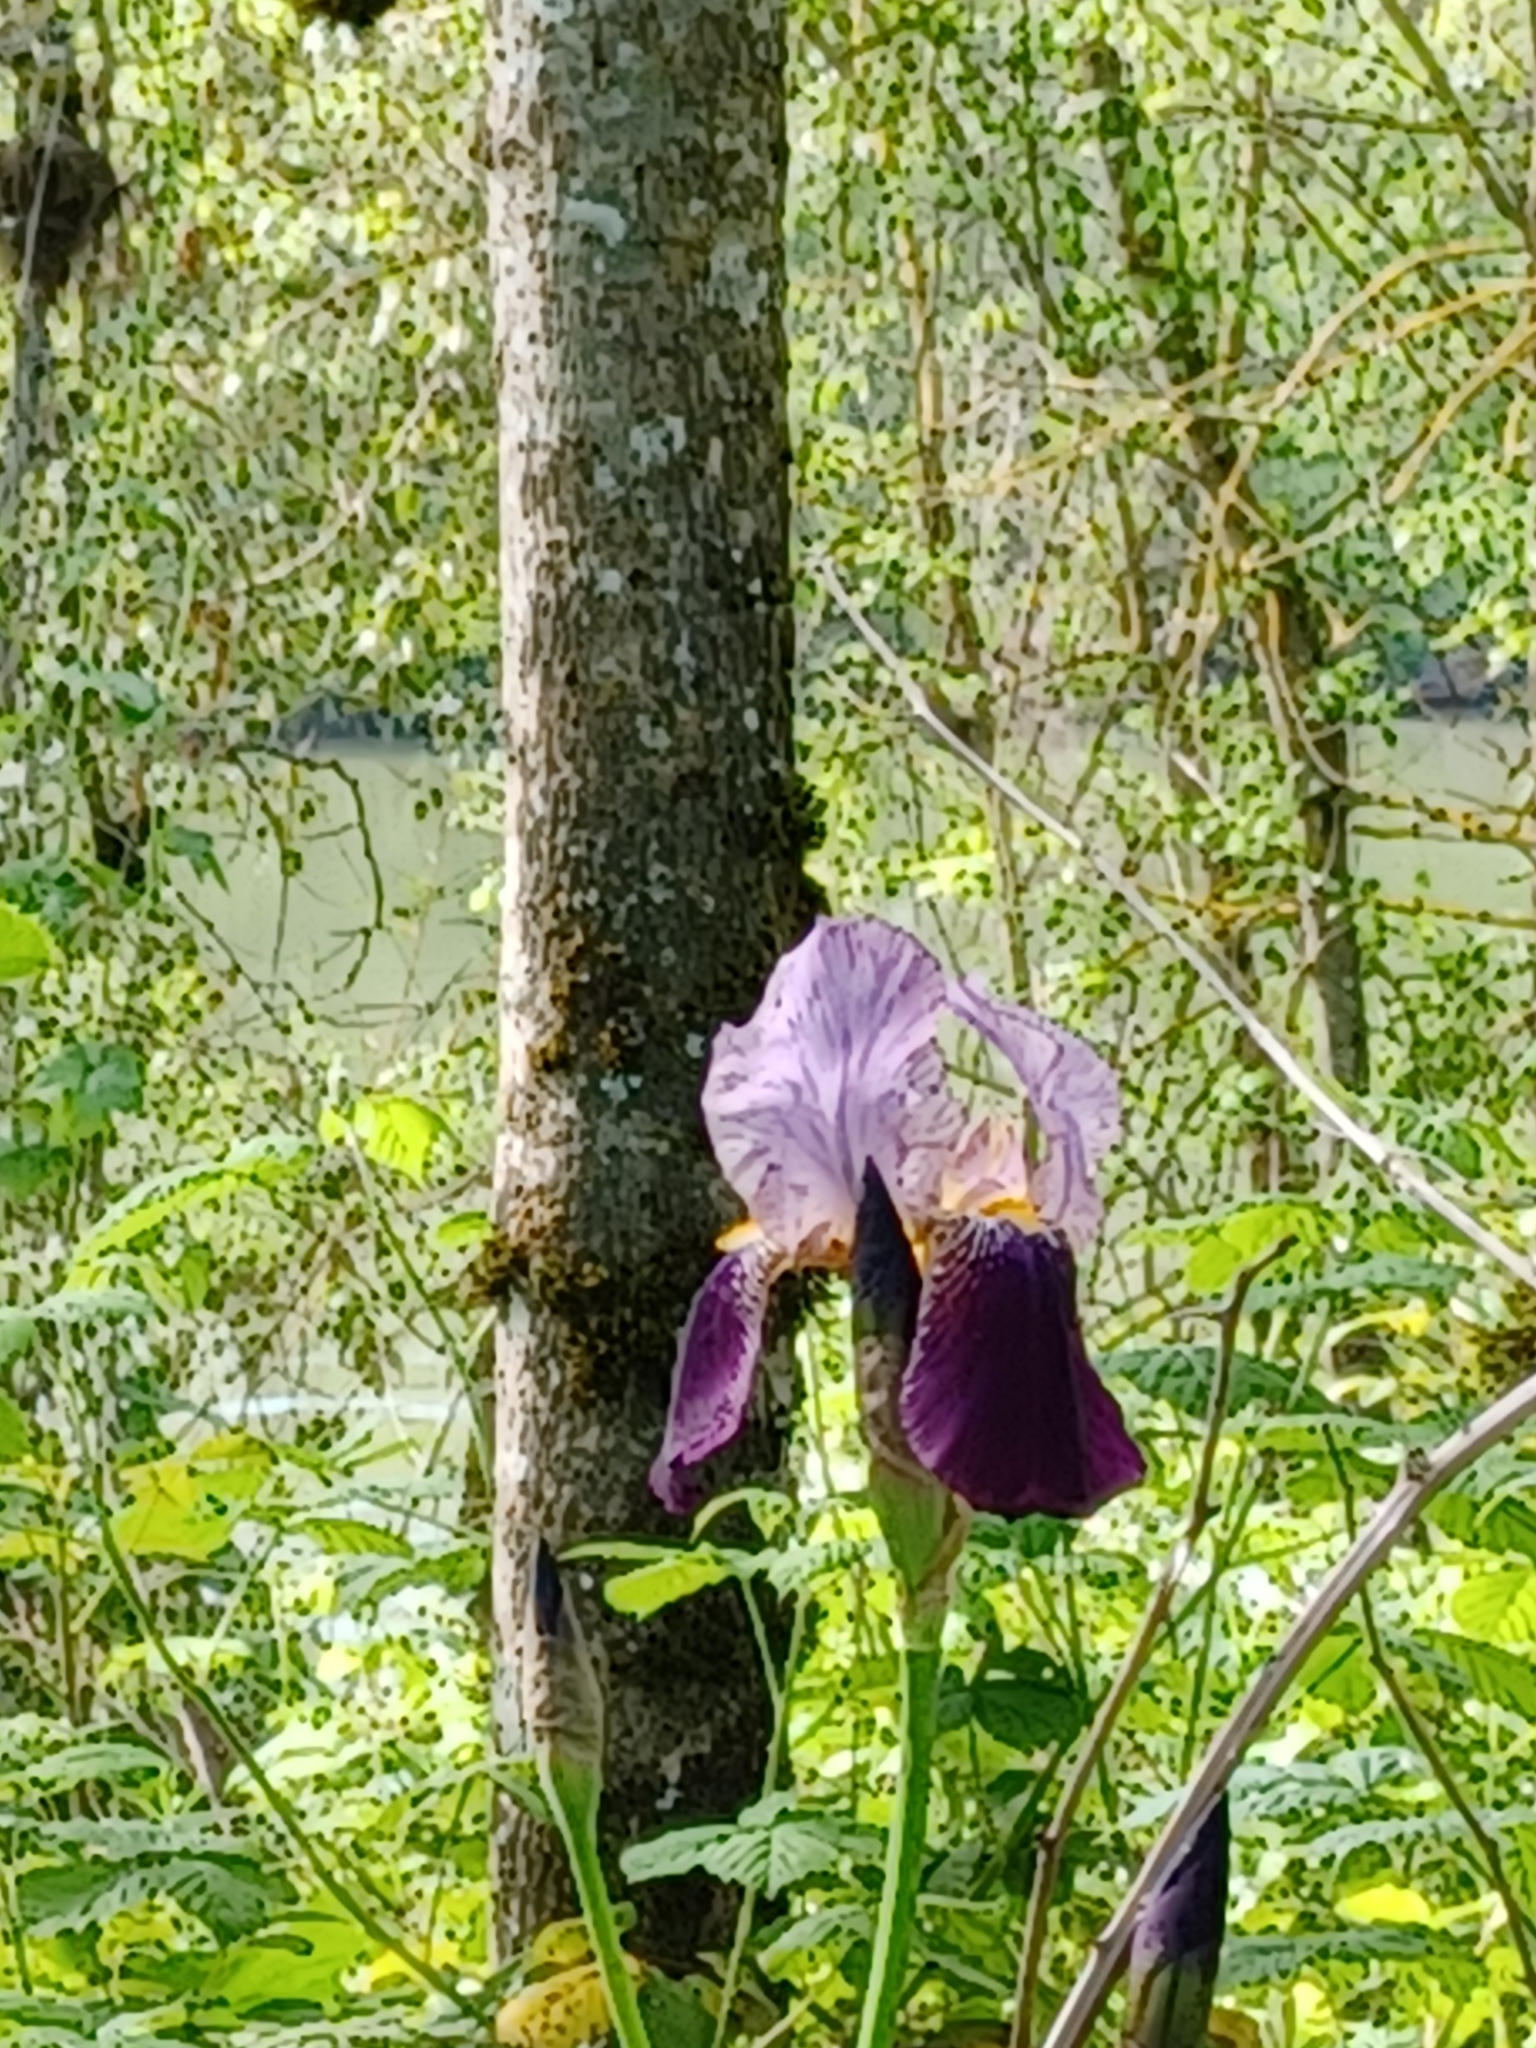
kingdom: Plantae
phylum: Tracheophyta
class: Liliopsida
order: Asparagales
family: Iridaceae
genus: Iris
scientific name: Iris hybrida
